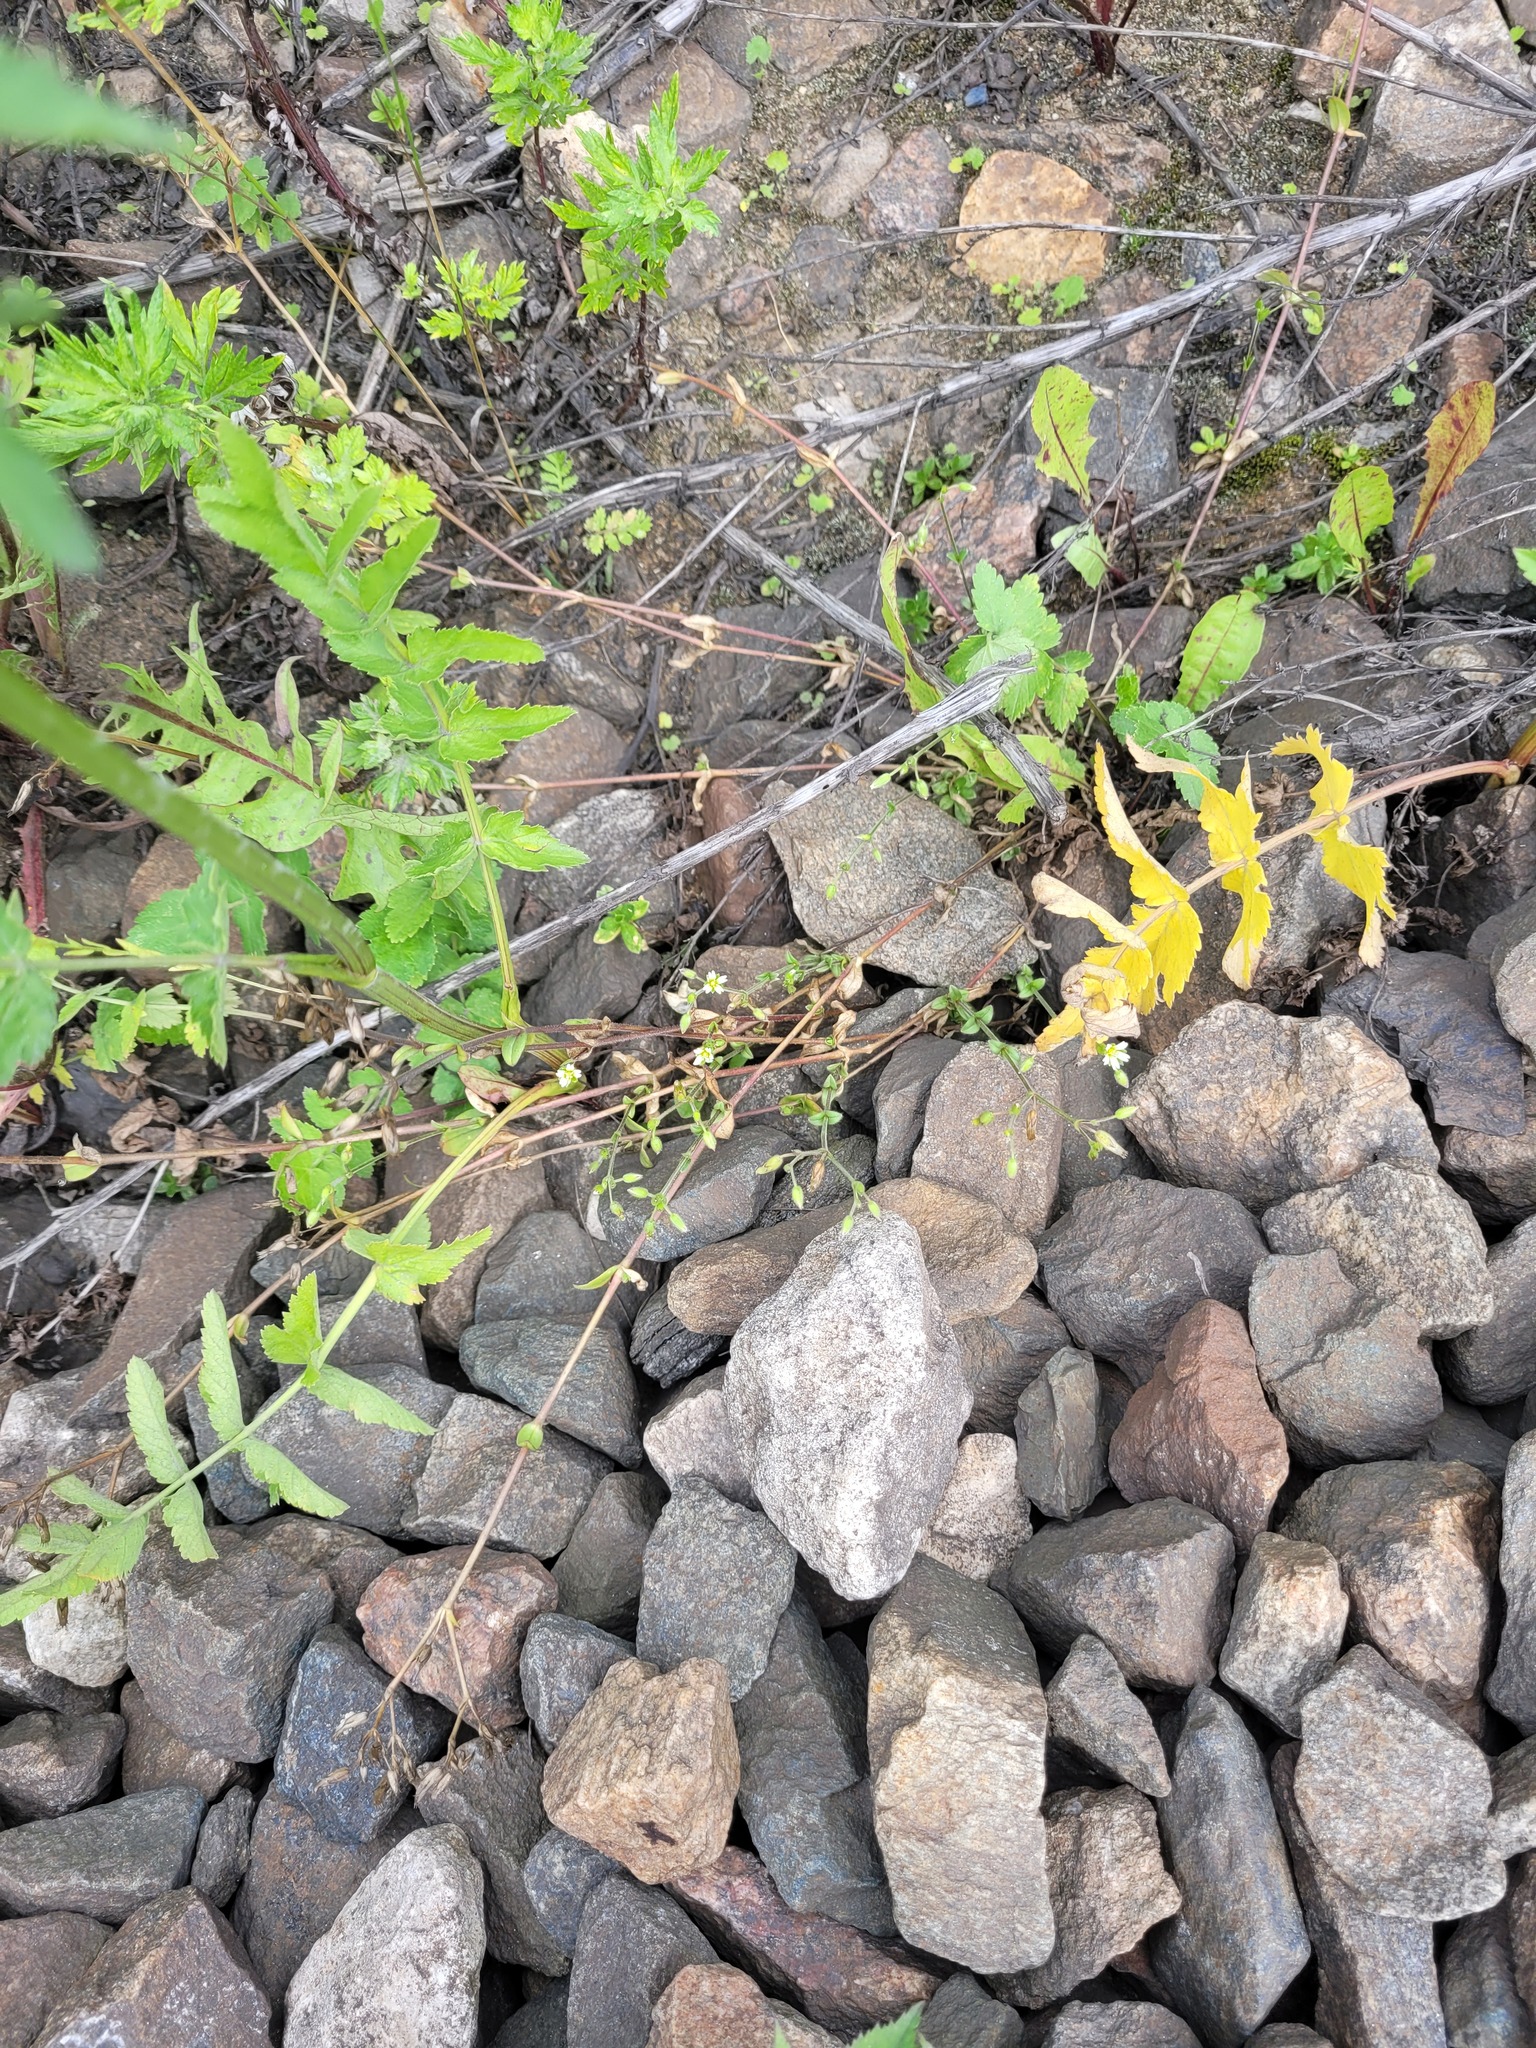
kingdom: Plantae
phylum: Tracheophyta
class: Magnoliopsida
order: Caryophyllales
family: Caryophyllaceae
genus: Cerastium
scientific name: Cerastium holosteoides
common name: Big chickweed
